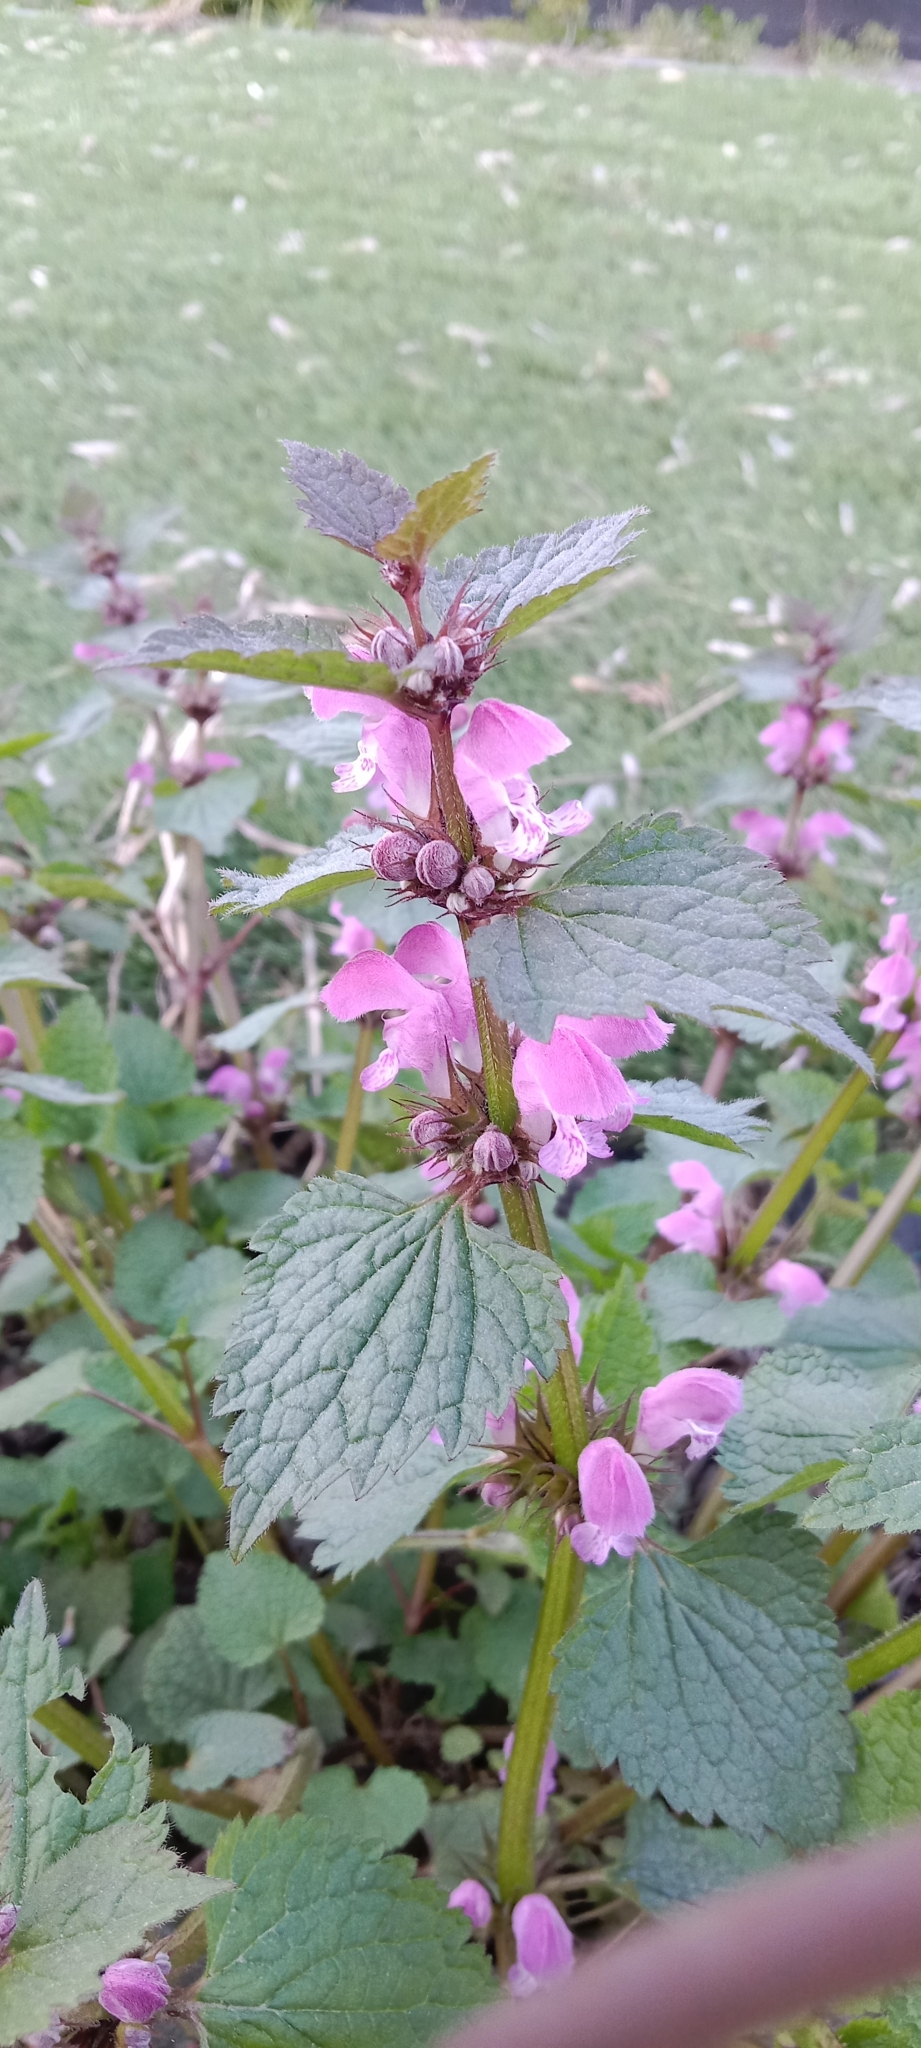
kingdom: Plantae
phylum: Tracheophyta
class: Magnoliopsida
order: Lamiales
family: Lamiaceae
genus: Lamium
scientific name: Lamium maculatum
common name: Spotted dead-nettle
